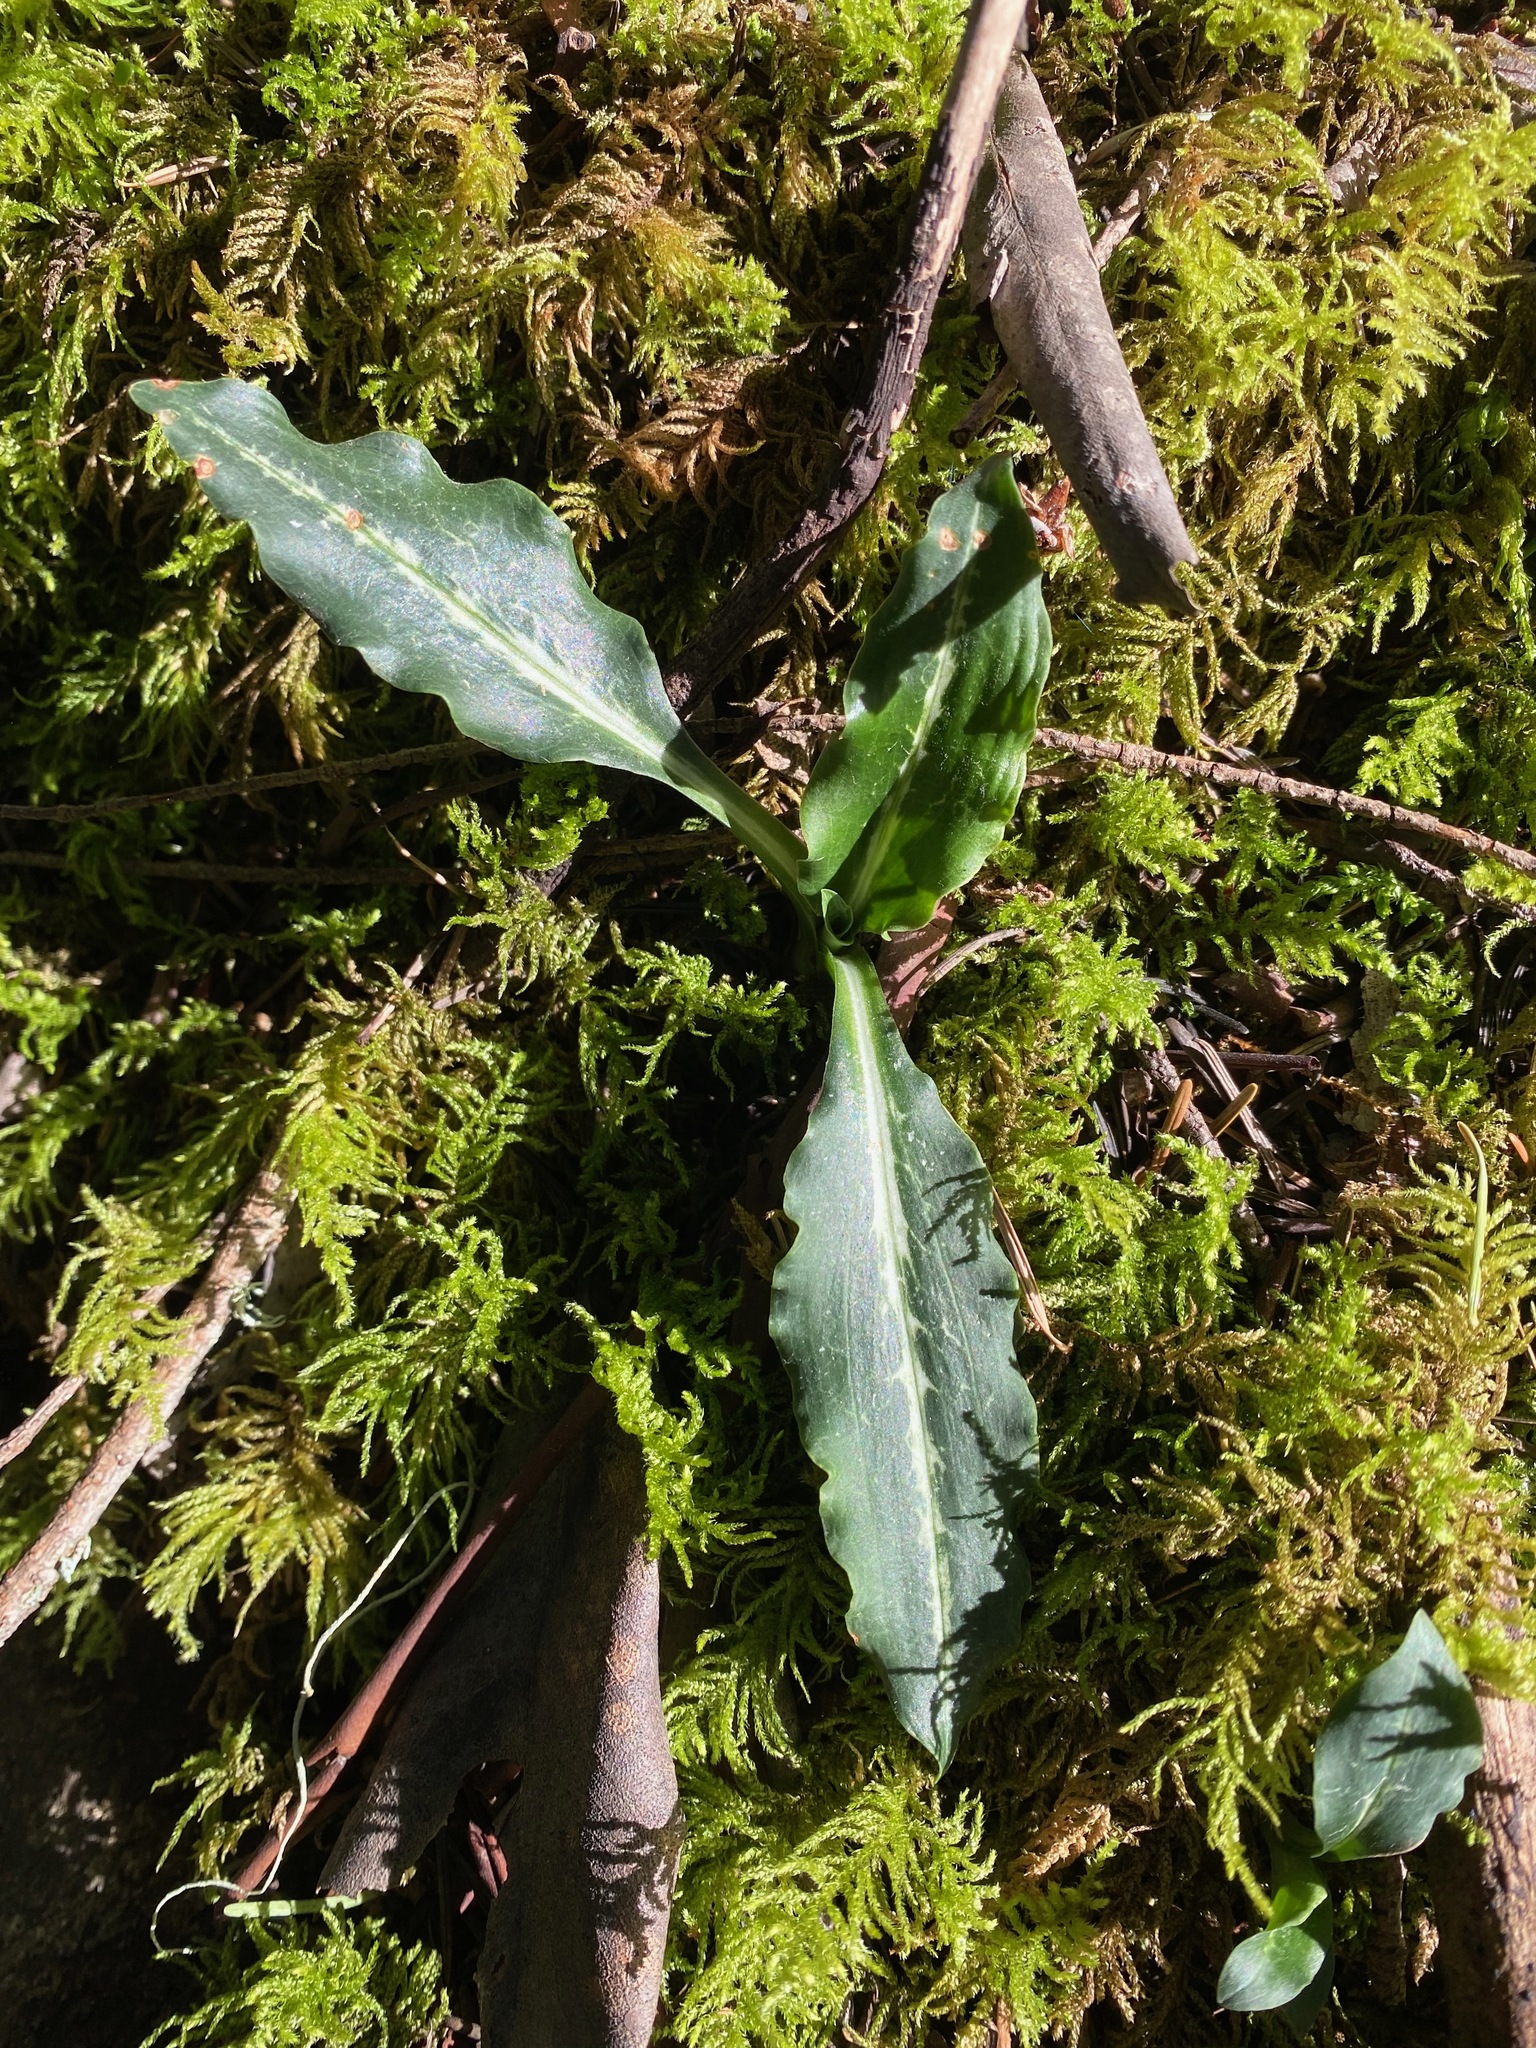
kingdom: Plantae
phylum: Tracheophyta
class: Liliopsida
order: Asparagales
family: Orchidaceae
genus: Goodyera
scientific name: Goodyera oblongifolia
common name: Giant rattlesnake-plantain
